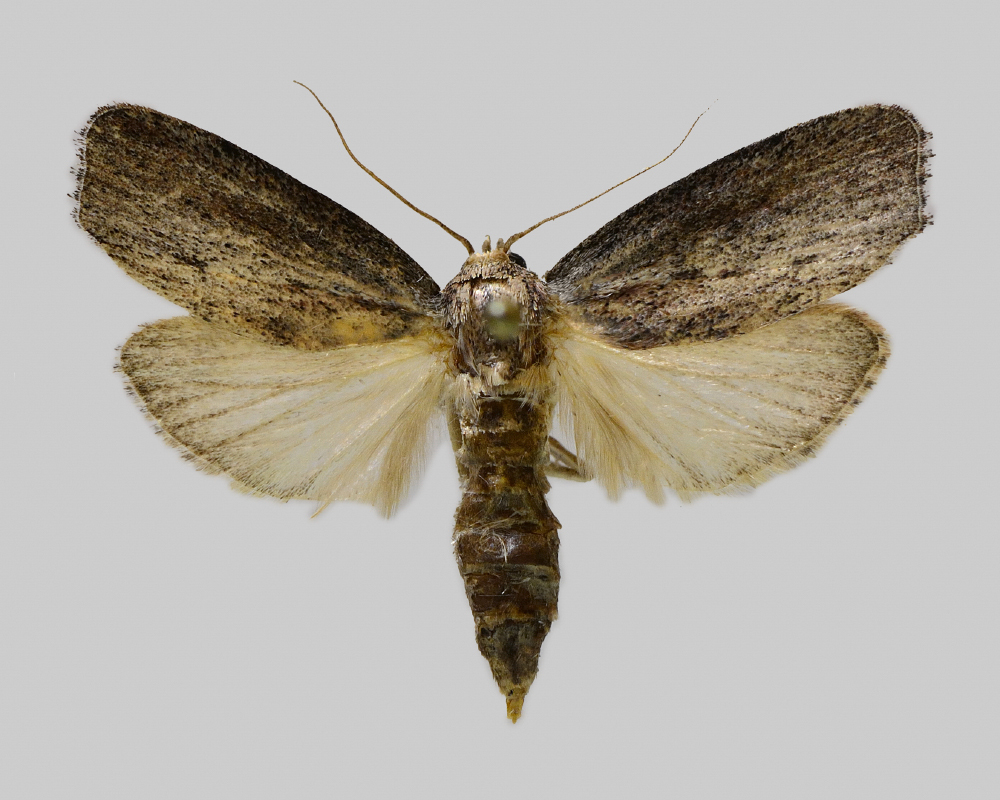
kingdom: Animalia
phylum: Arthropoda
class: Insecta
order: Lepidoptera
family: Pyralidae
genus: Galleria
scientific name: Galleria mellonella
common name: Greater wax moth
